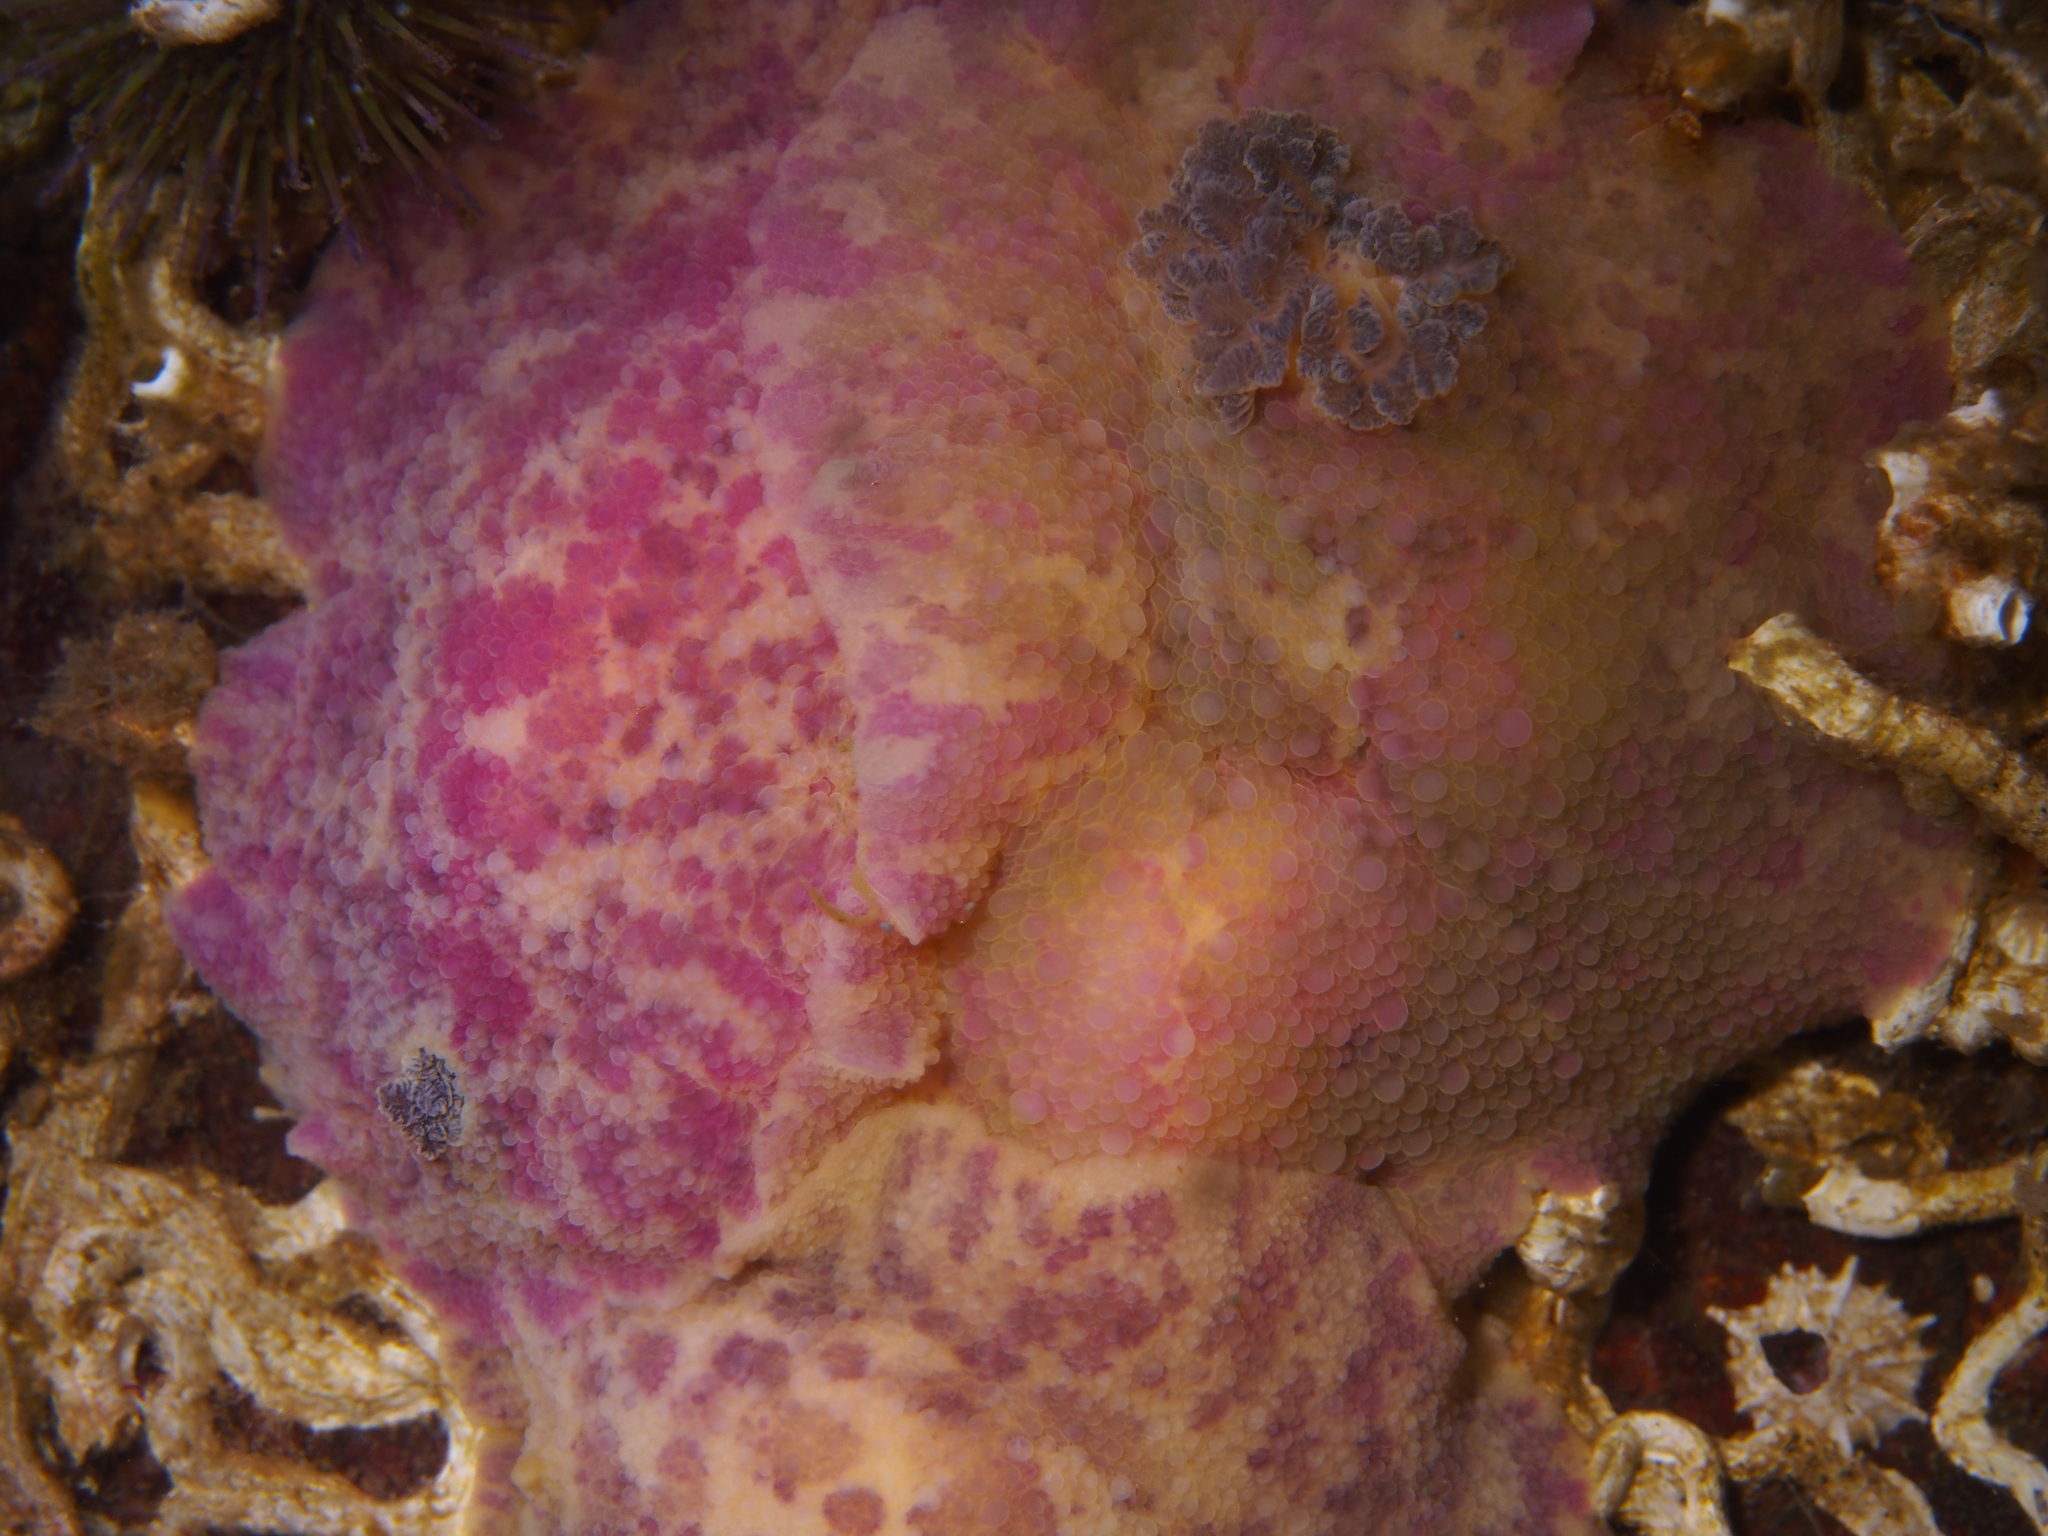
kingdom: Animalia
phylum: Mollusca
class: Gastropoda
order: Nudibranchia
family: Dorididae
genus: Doris
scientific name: Doris pseudoargus
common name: Sea lemon
